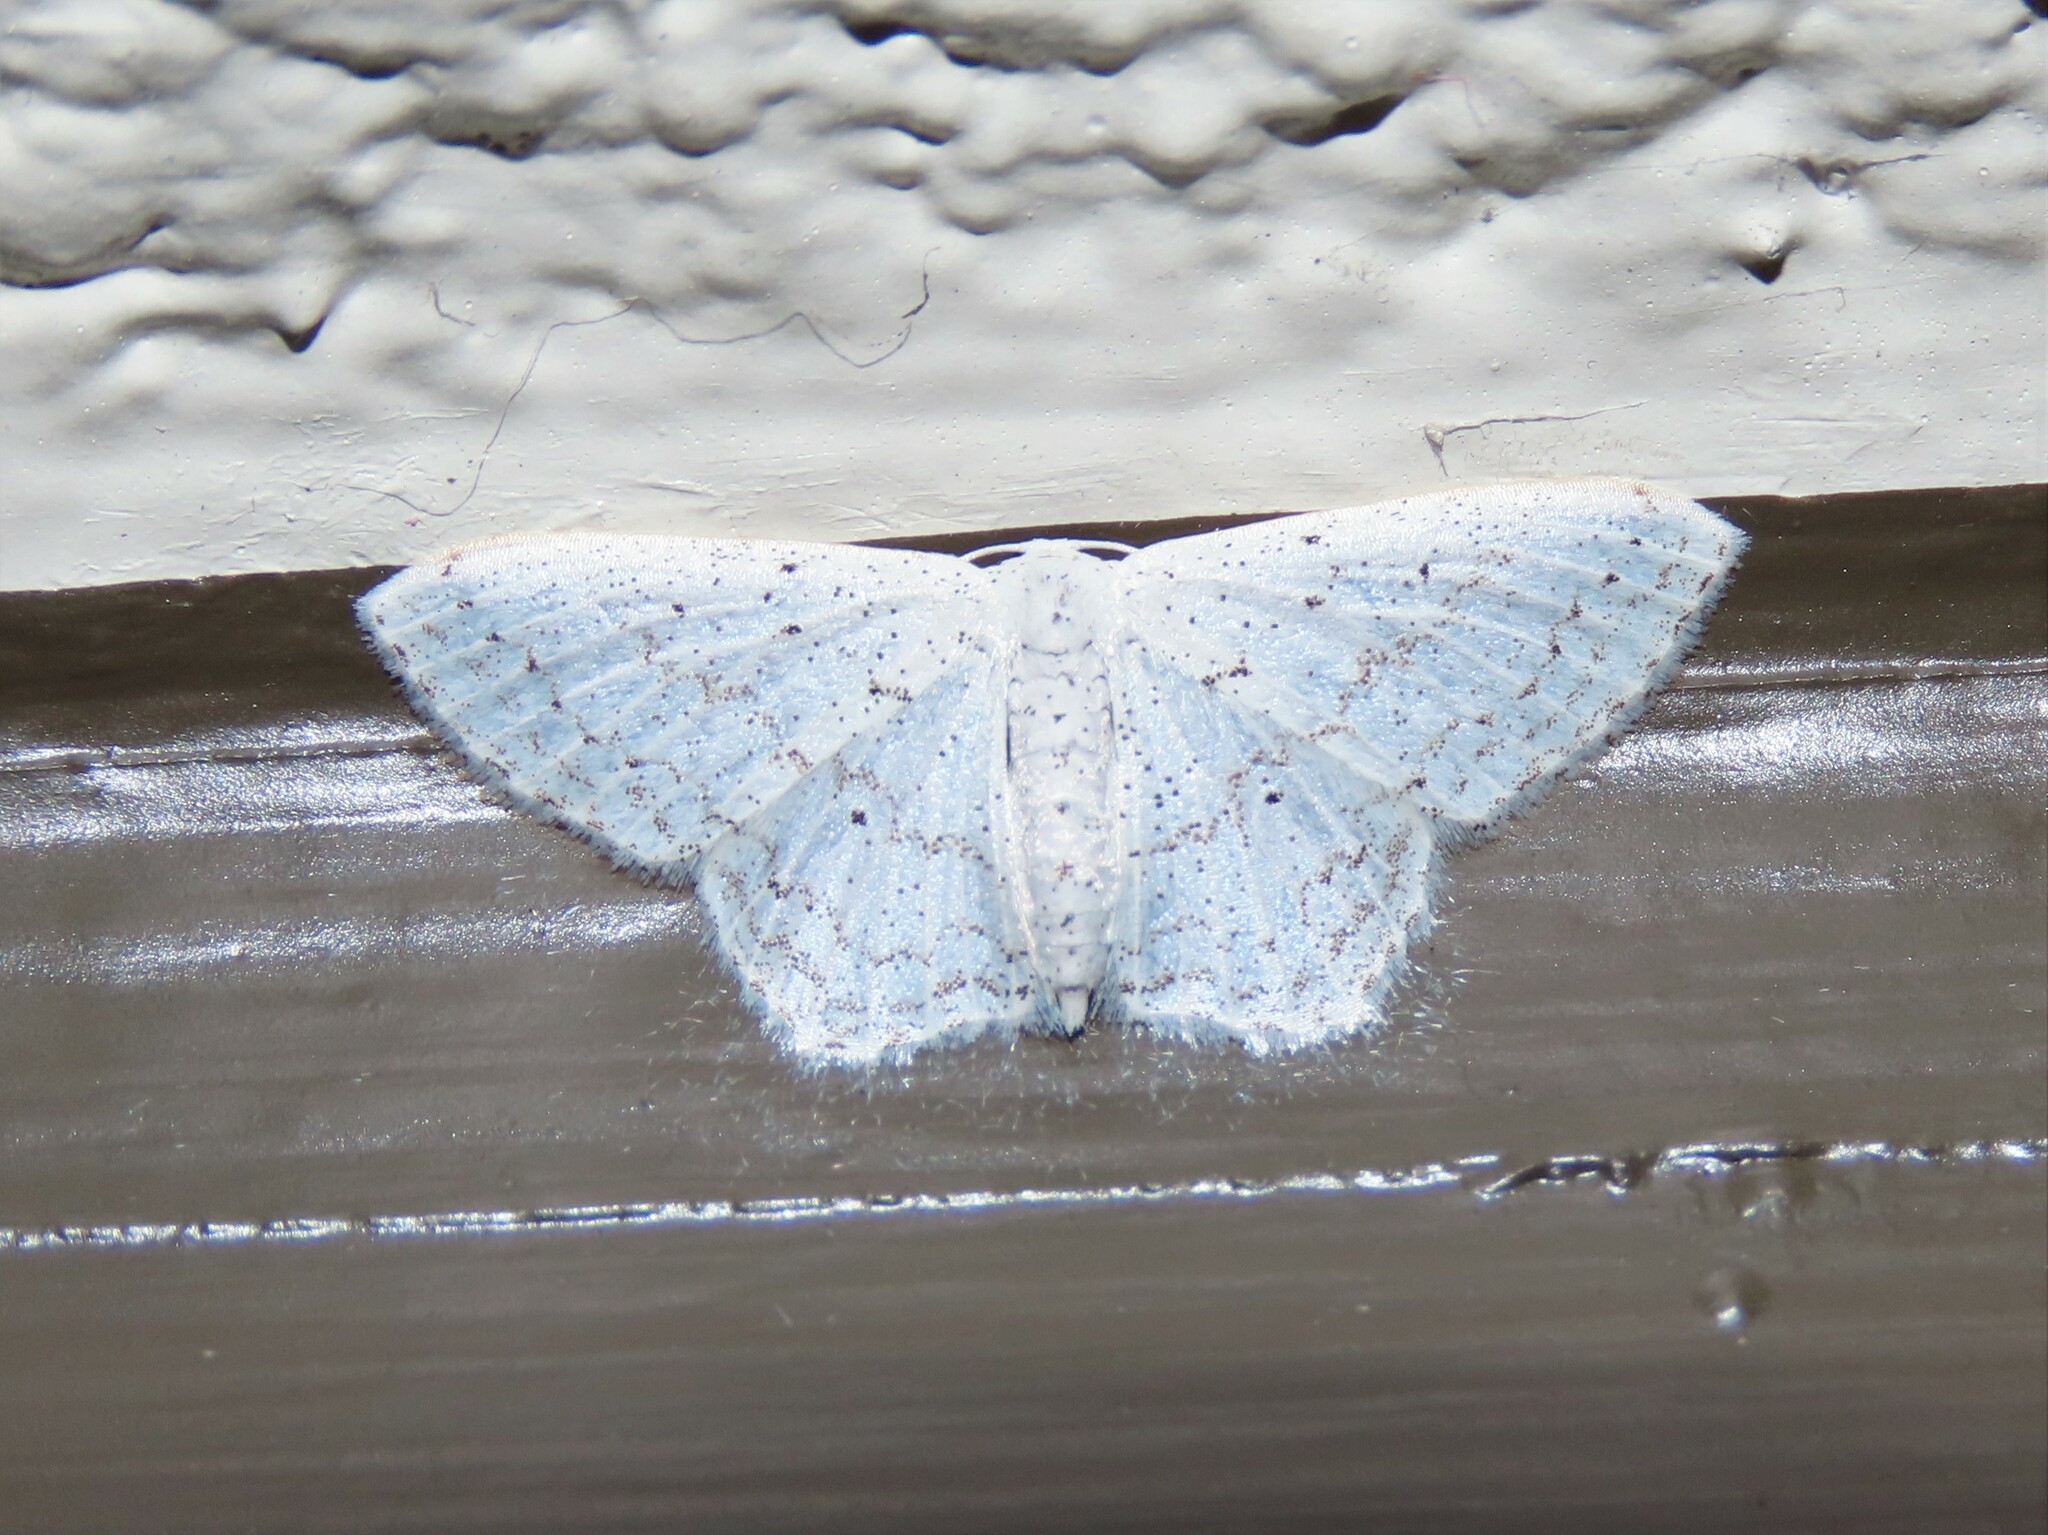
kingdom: Animalia
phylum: Arthropoda
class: Insecta
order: Lepidoptera
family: Geometridae
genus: Idaea
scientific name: Idaea tacturata
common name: Dot-lined wave
